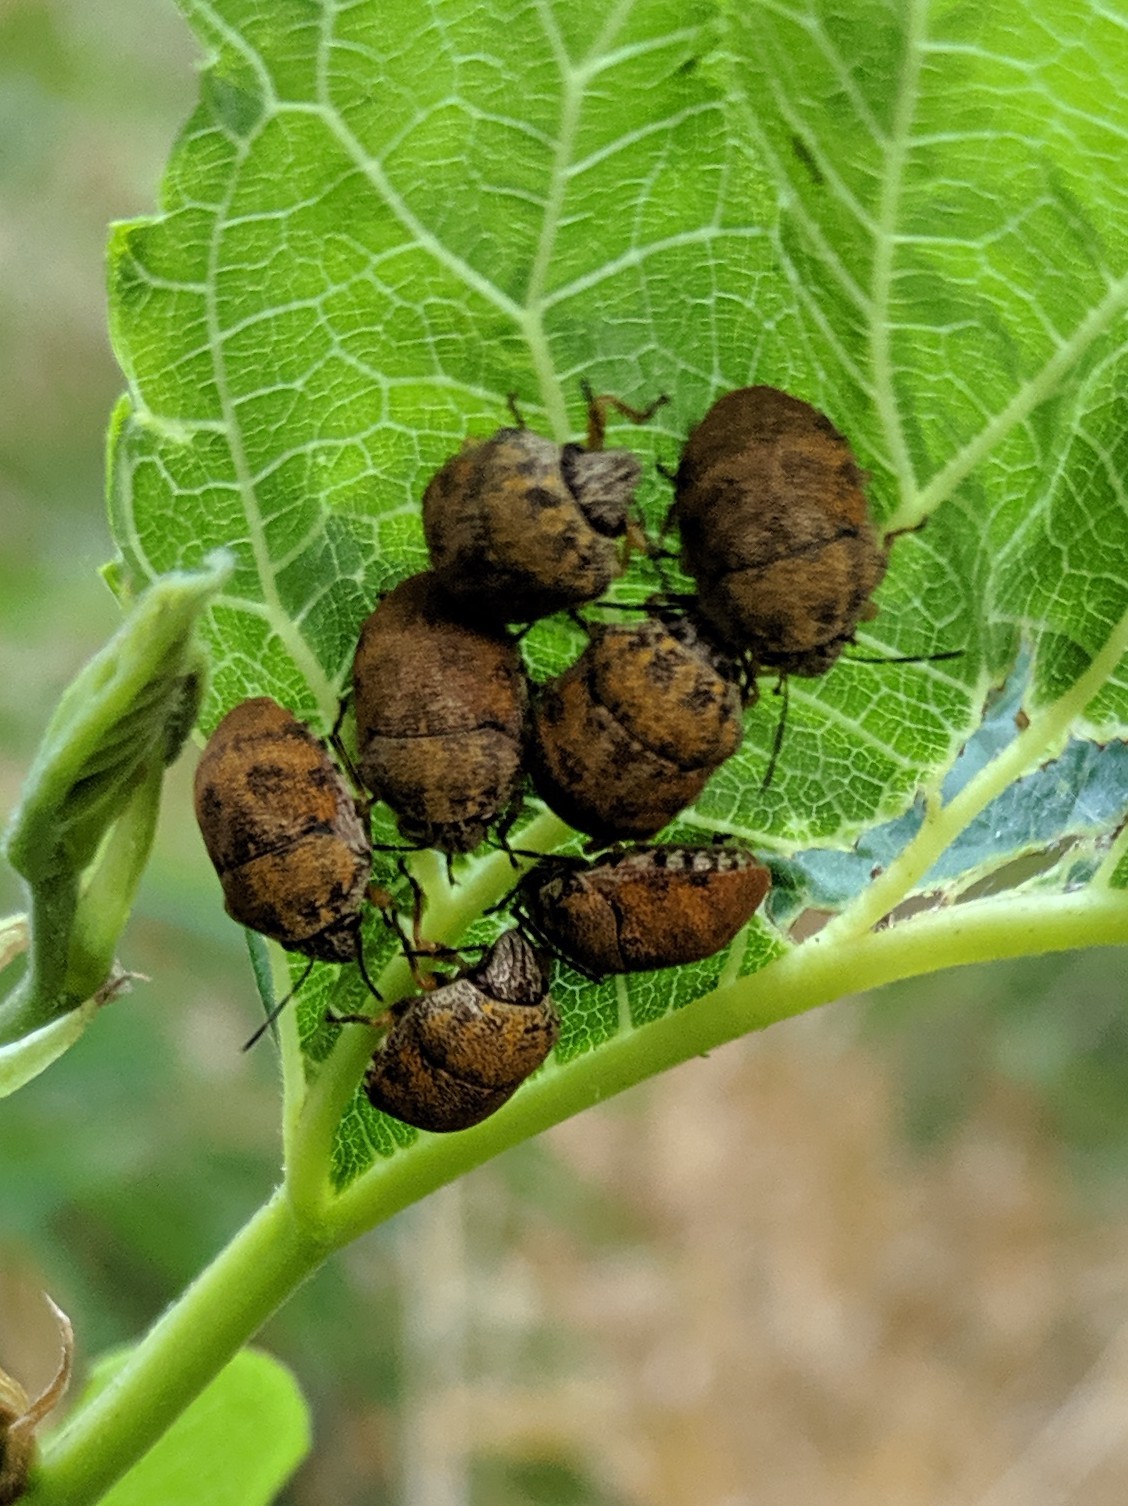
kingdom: Animalia
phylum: Arthropoda
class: Insecta
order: Hemiptera
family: Scutelleridae
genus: Orsilochides
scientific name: Orsilochides
